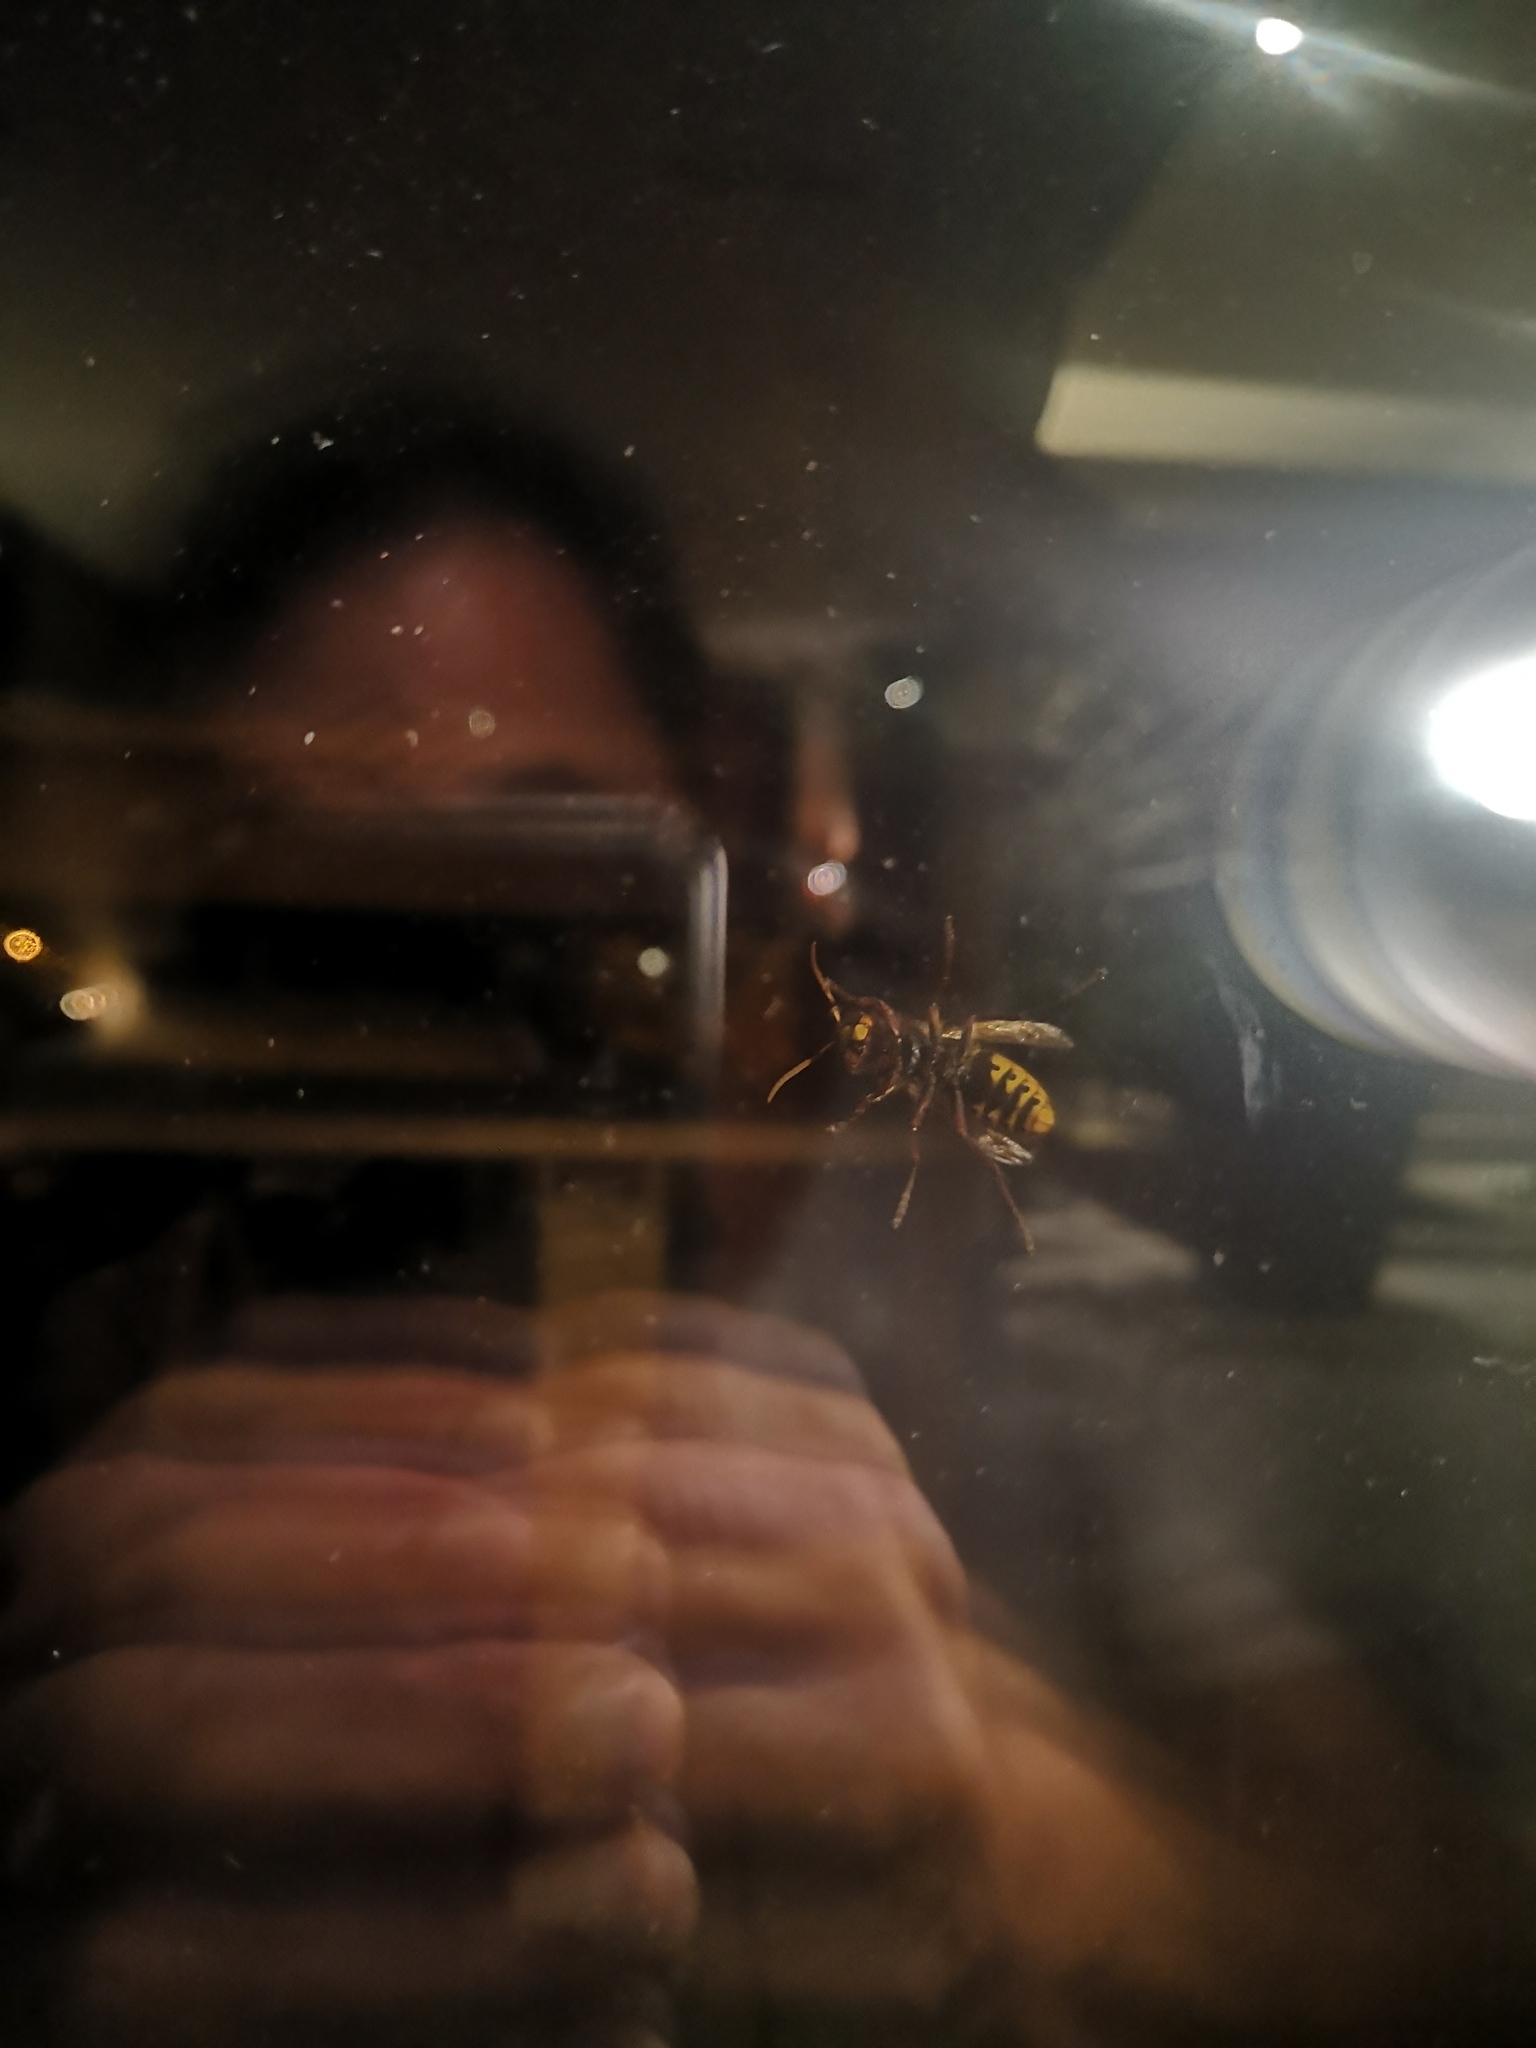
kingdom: Animalia
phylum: Arthropoda
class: Insecta
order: Hymenoptera
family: Vespidae
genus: Vespa
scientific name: Vespa crabro
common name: Hornet
